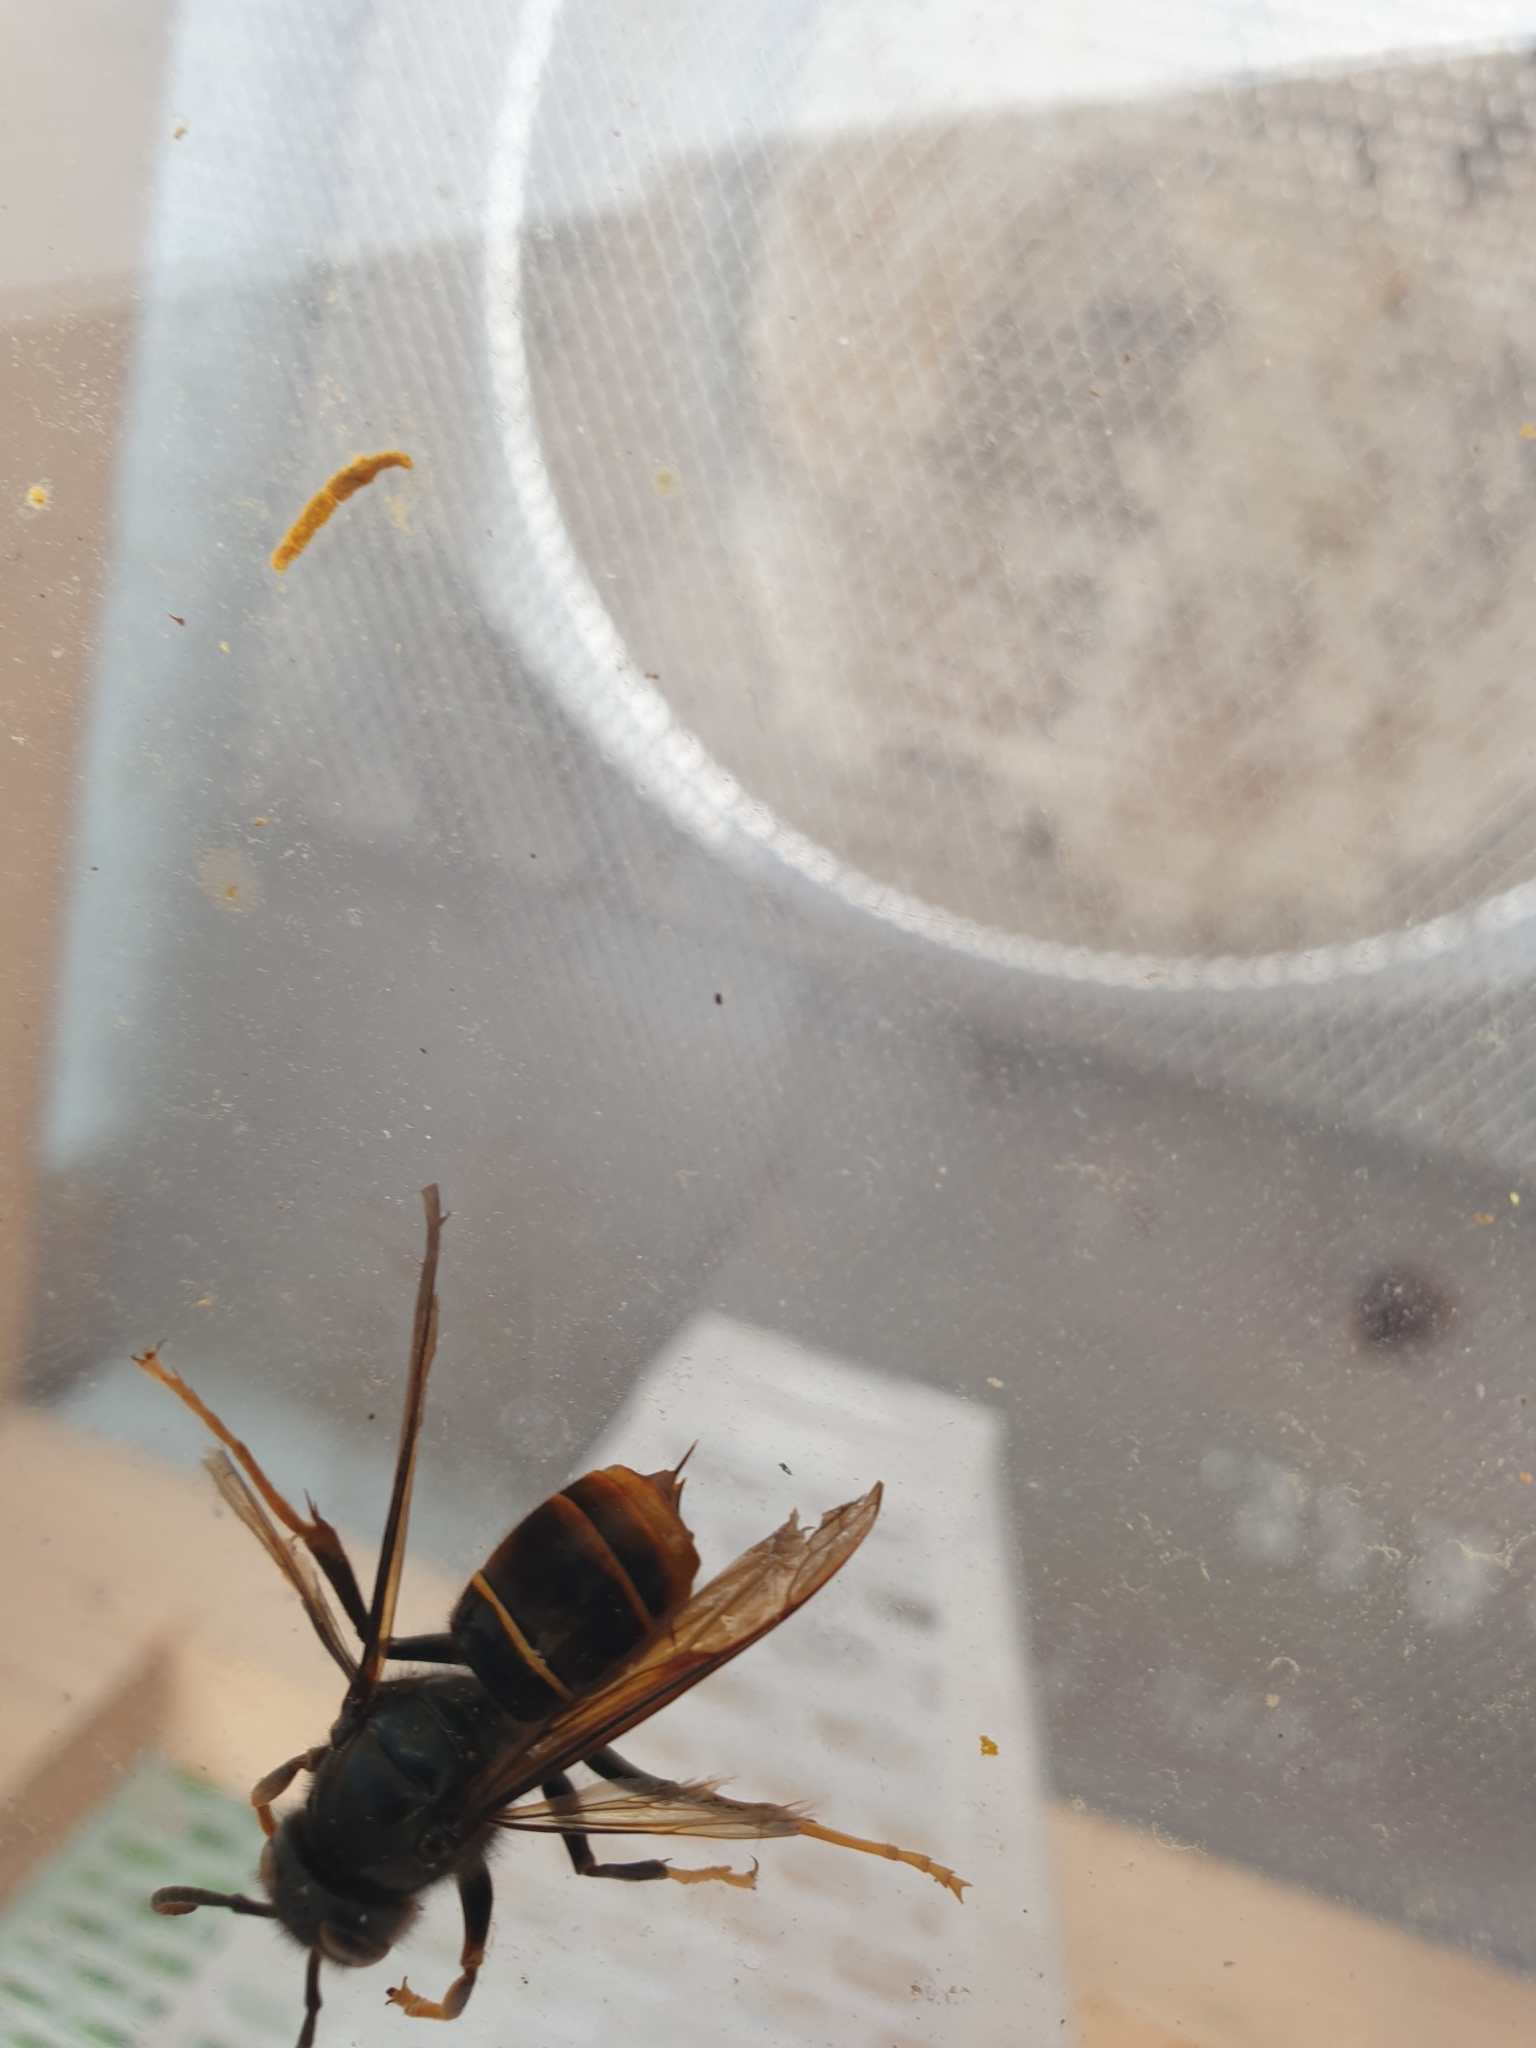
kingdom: Animalia
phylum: Arthropoda
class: Insecta
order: Hymenoptera
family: Vespidae
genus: Vespa
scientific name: Vespa velutina
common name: Asian hornet
